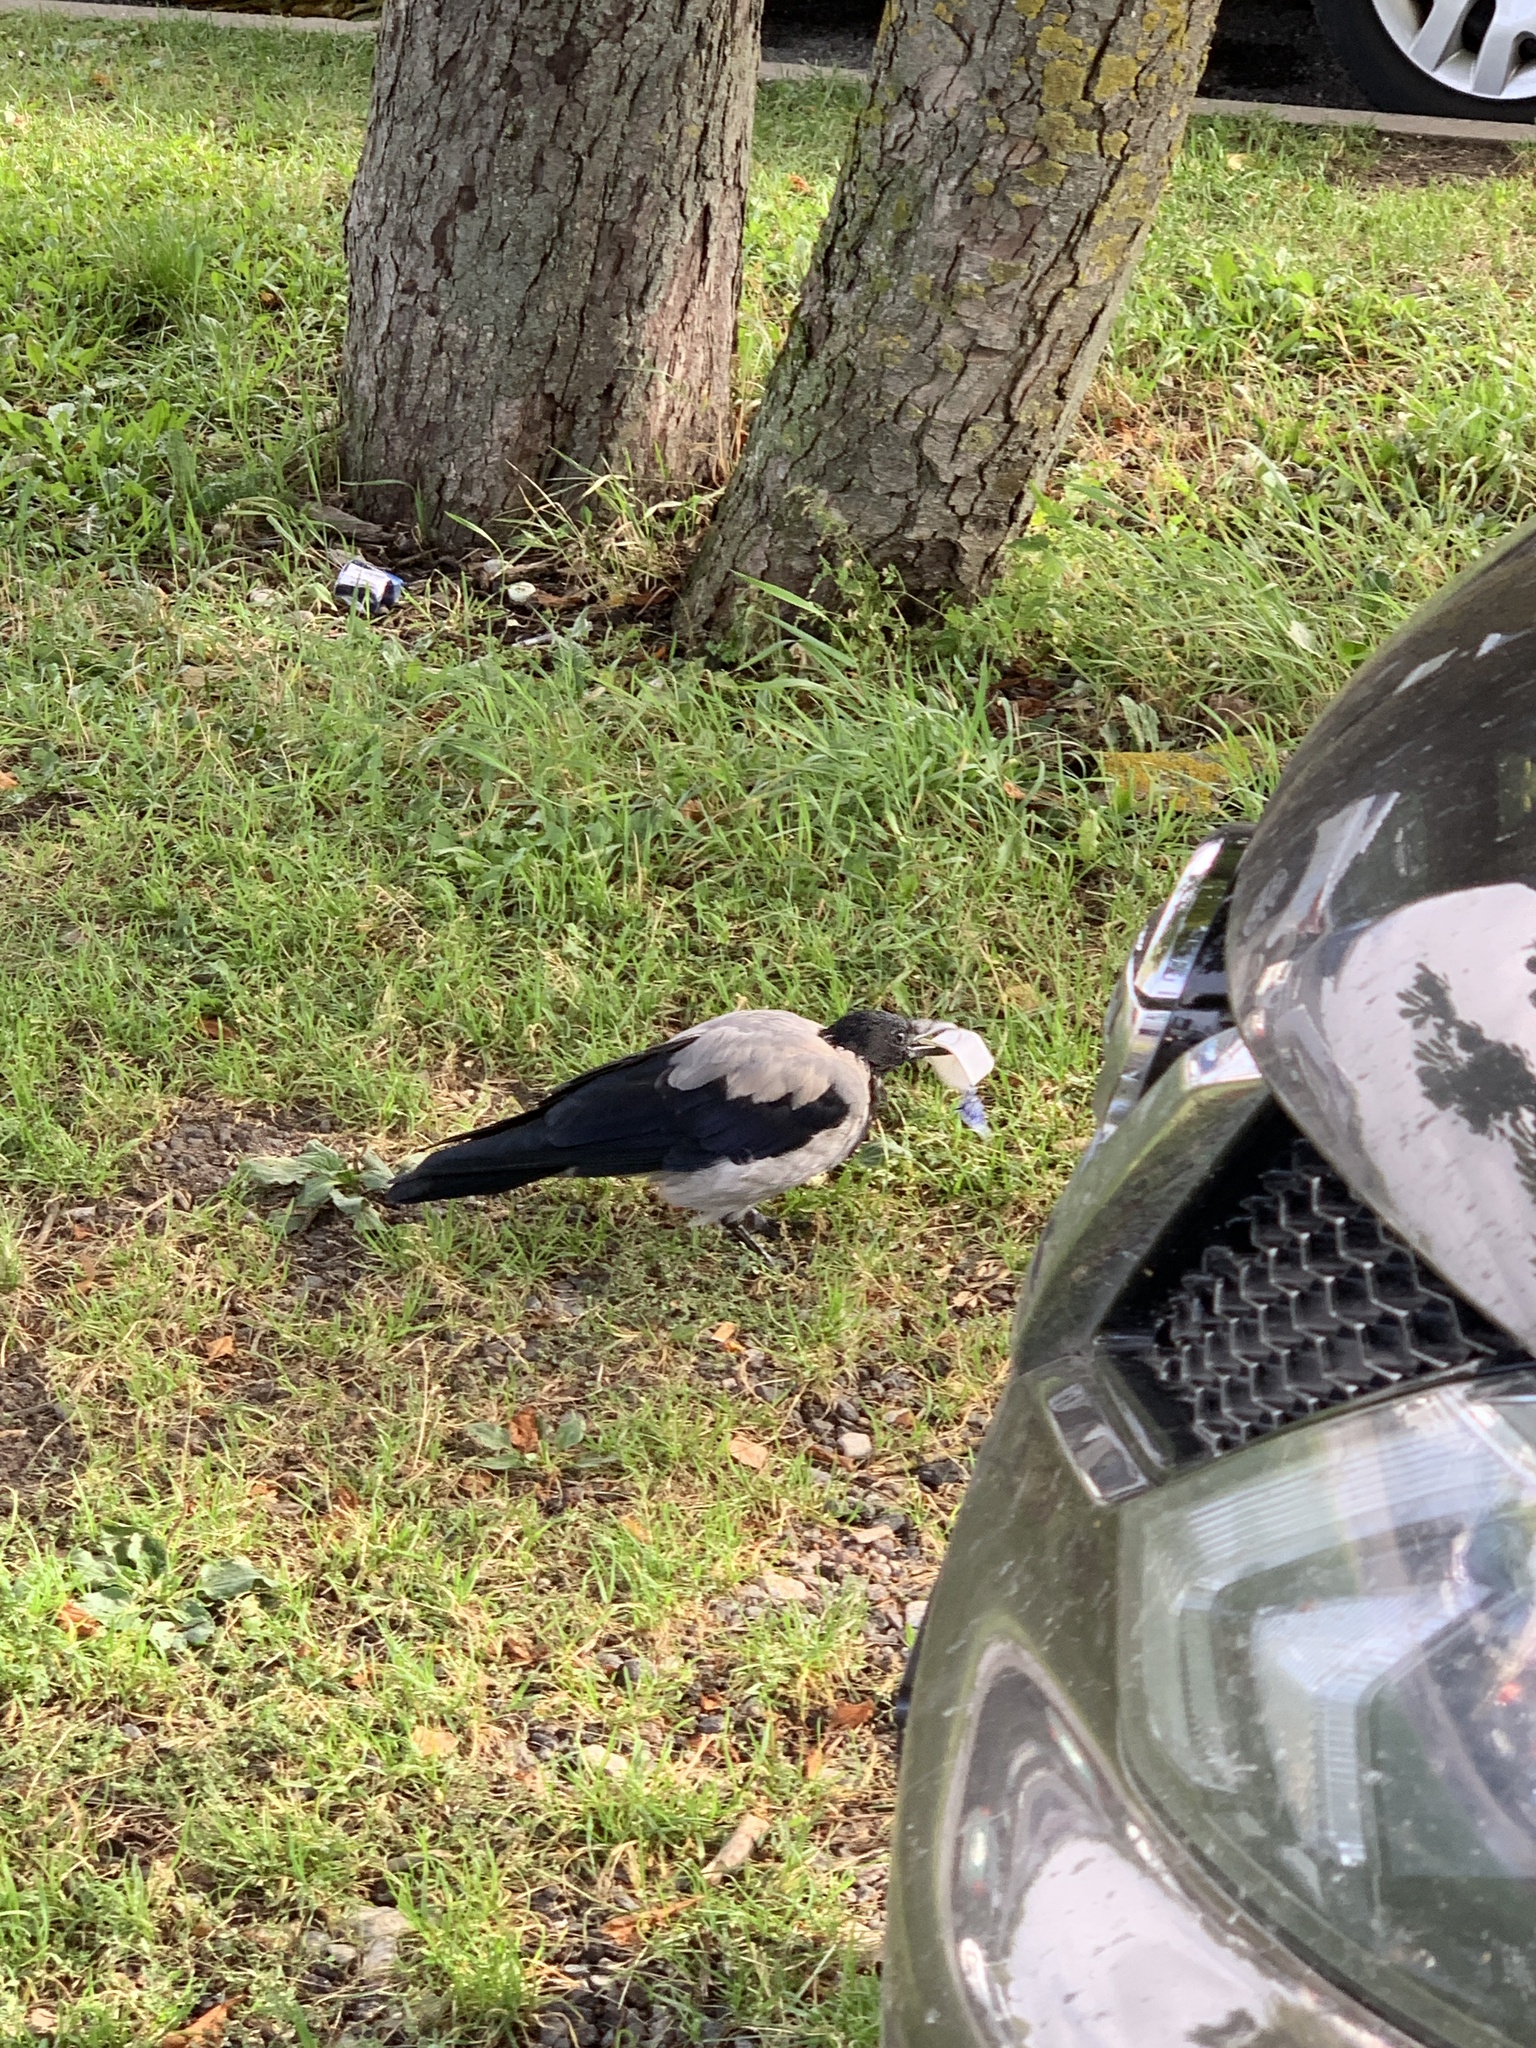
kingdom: Animalia
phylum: Chordata
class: Aves
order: Passeriformes
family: Corvidae
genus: Corvus
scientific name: Corvus cornix
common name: Hooded crow
